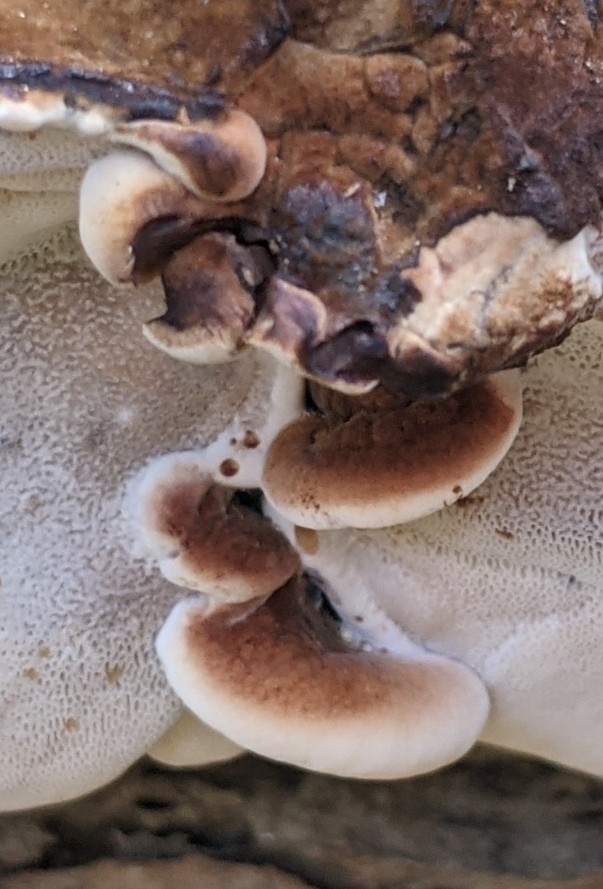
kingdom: Fungi
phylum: Basidiomycota
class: Agaricomycetes
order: Polyporales
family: Ischnodermataceae
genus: Ischnoderma
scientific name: Ischnoderma resinosum
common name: Resinous polypore
